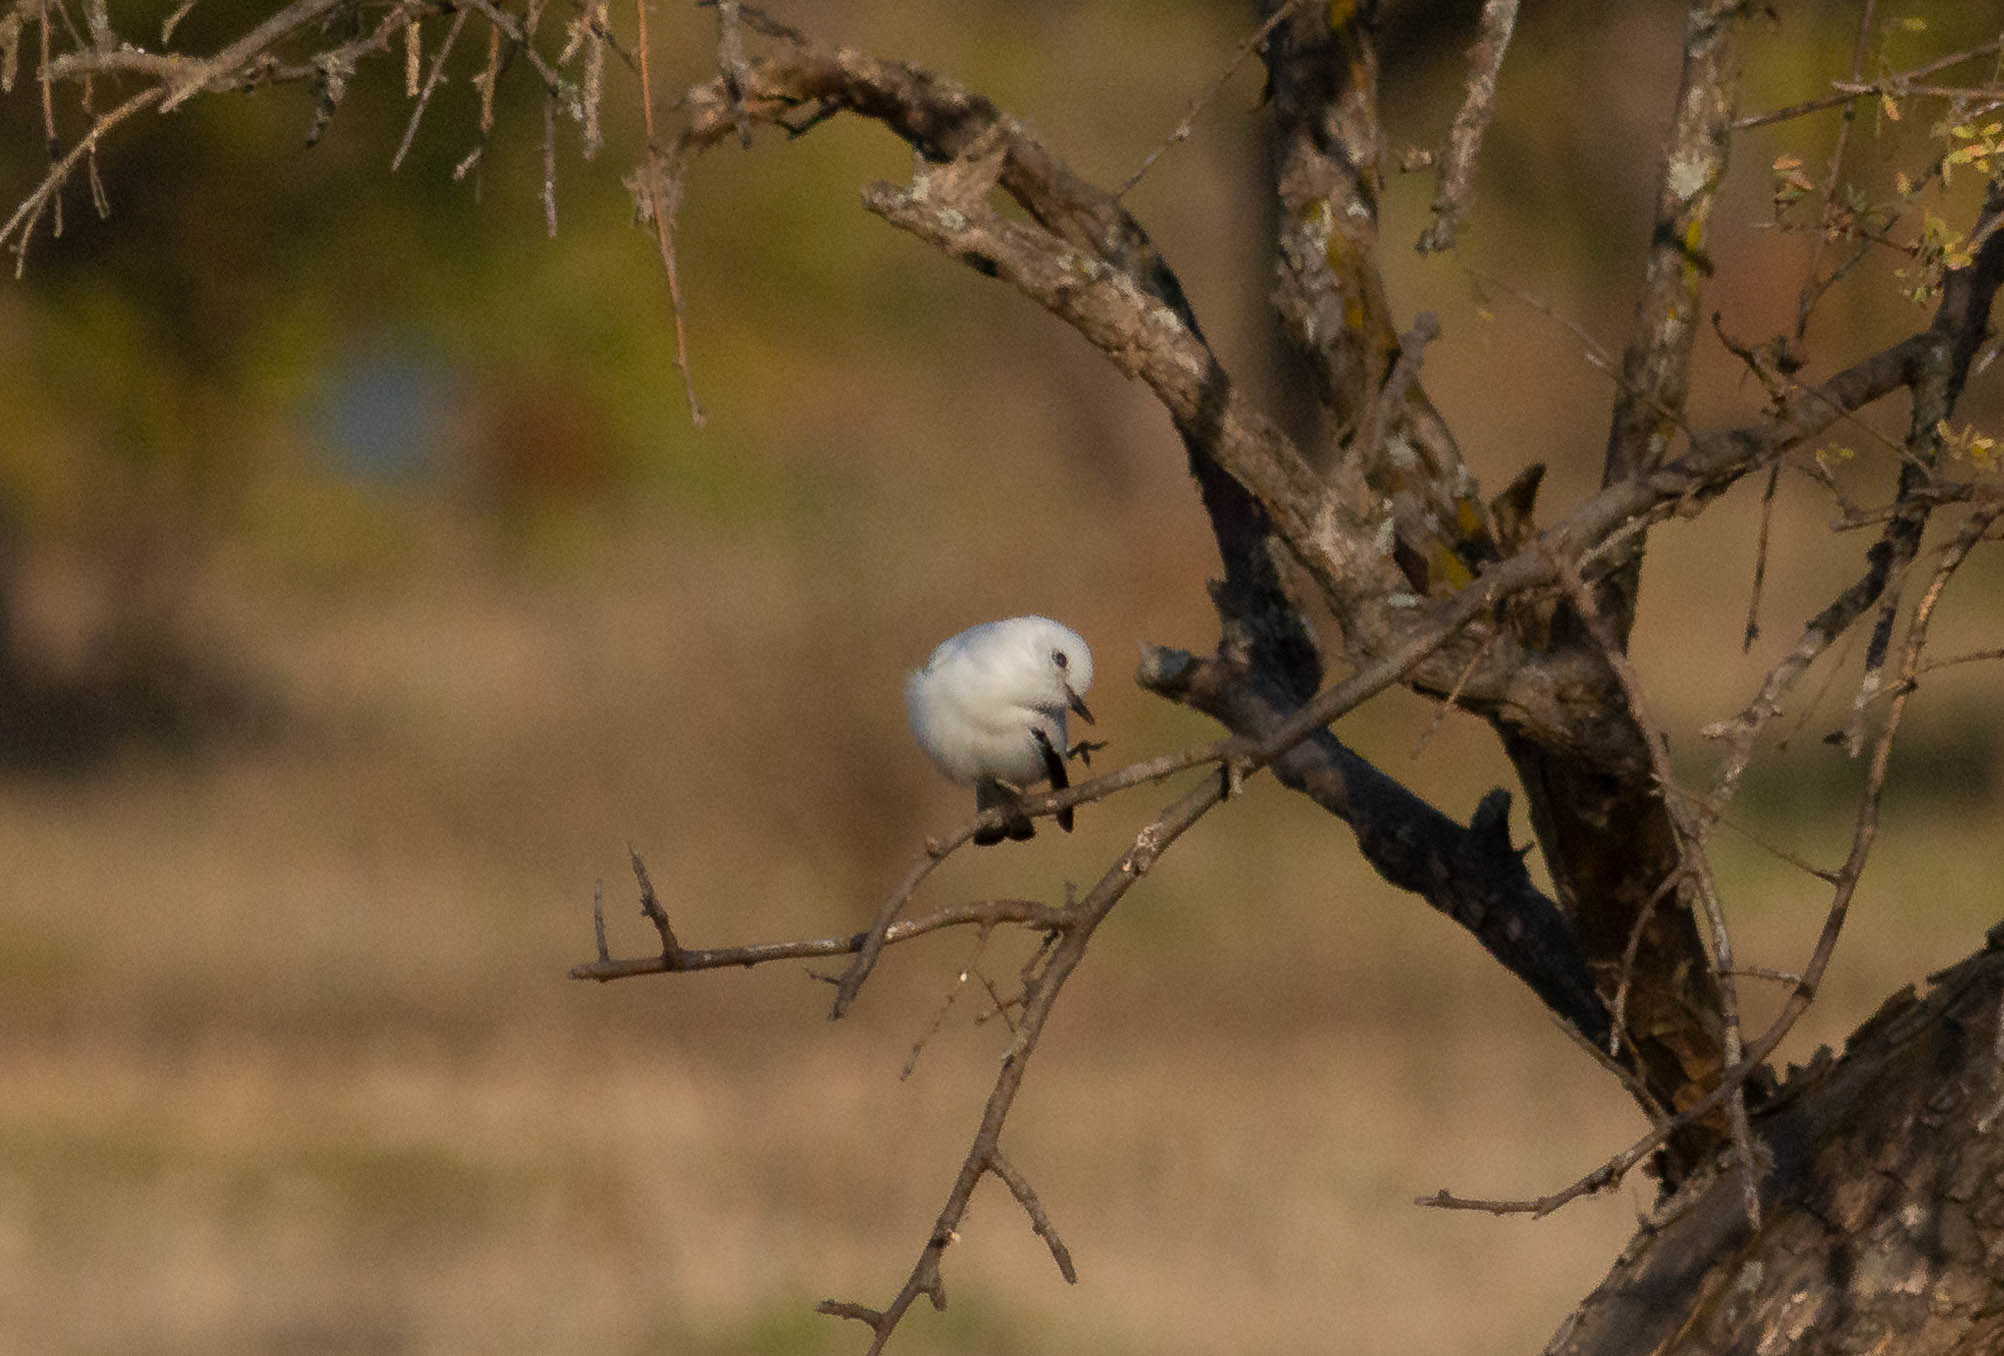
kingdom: Animalia
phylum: Chordata
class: Aves
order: Passeriformes
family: Tyrannidae
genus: Xolmis
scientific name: Xolmis irupero
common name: White monjita
